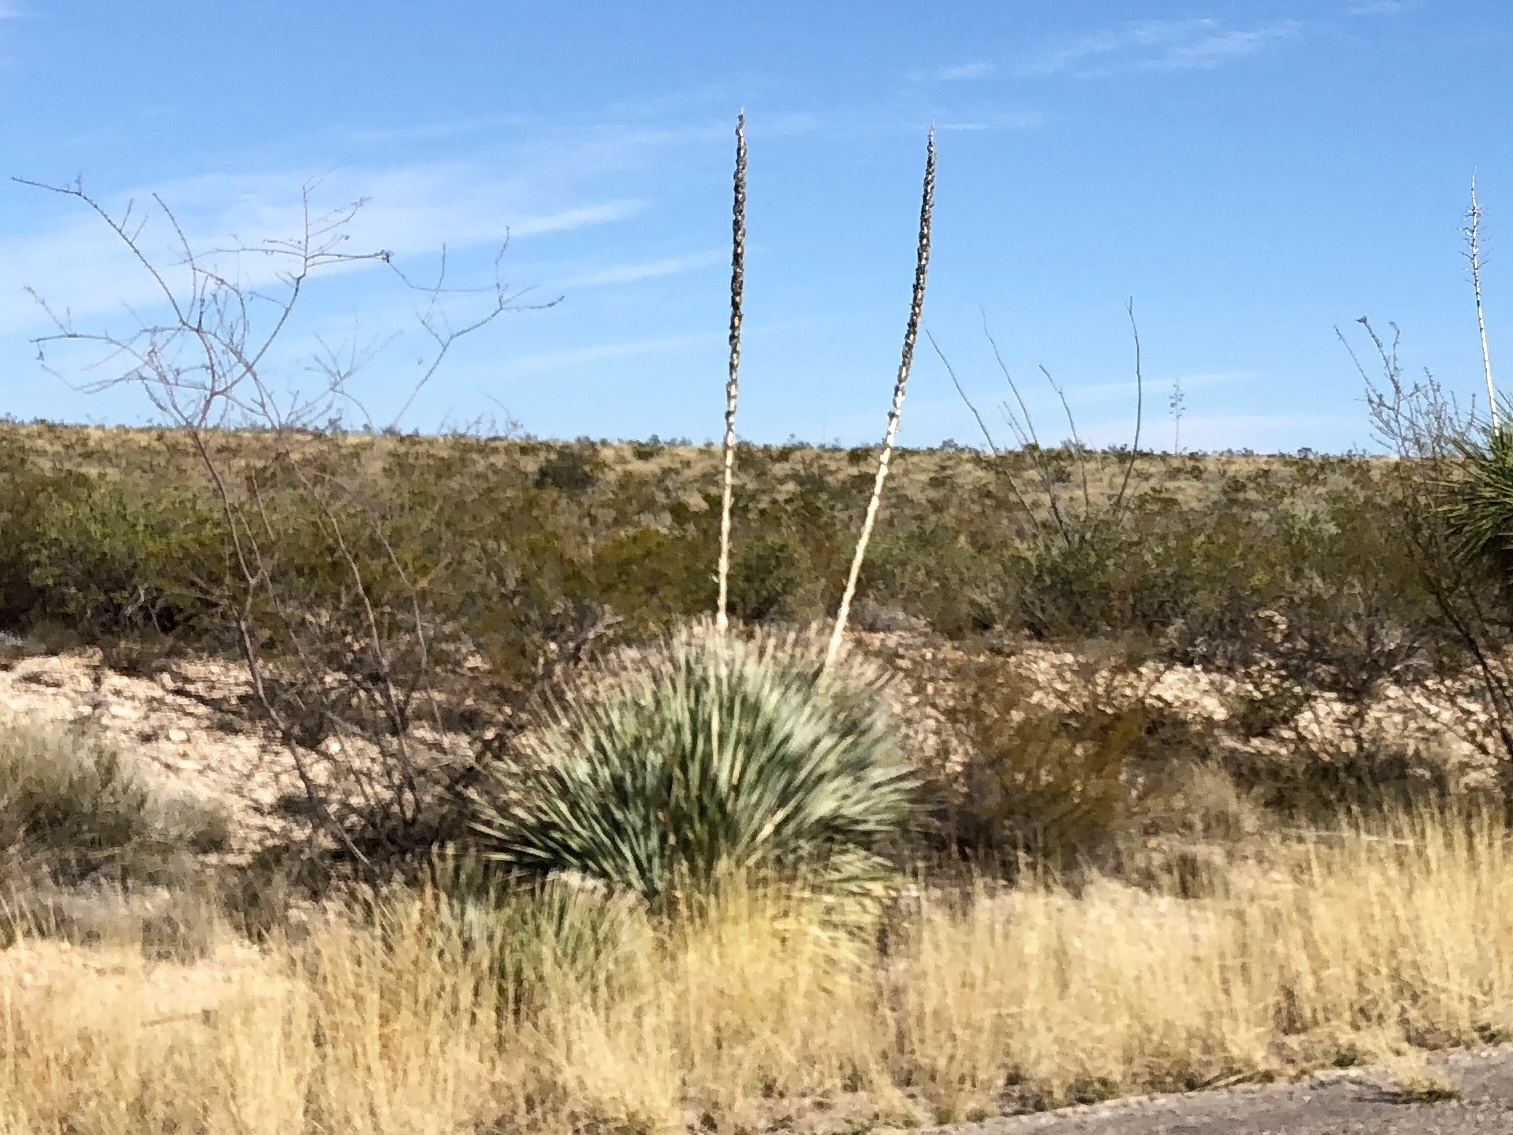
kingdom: Plantae
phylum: Tracheophyta
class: Liliopsida
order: Asparagales
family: Asparagaceae
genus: Dasylirion
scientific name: Dasylirion wheeleri
